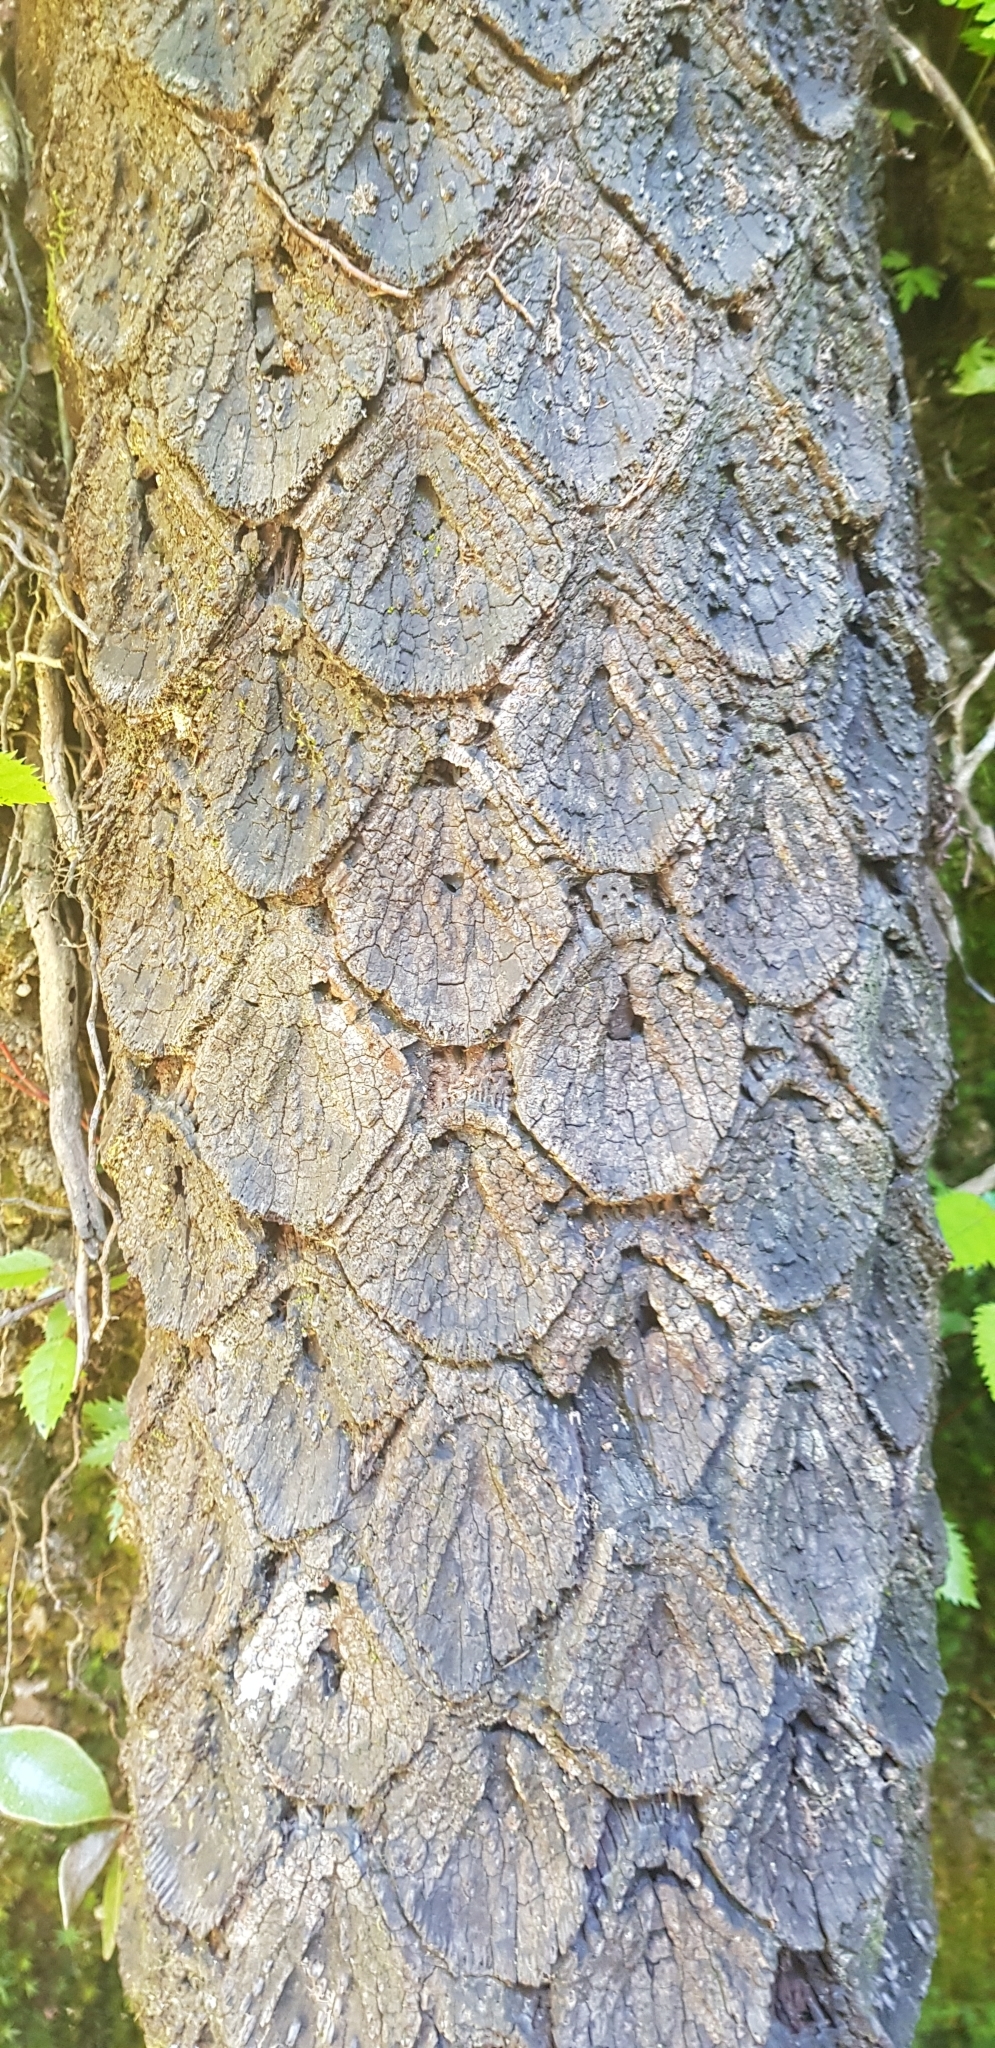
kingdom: Plantae
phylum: Tracheophyta
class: Polypodiopsida
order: Cyatheales
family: Cyatheaceae
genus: Sphaeropteris
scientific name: Sphaeropteris medullaris
